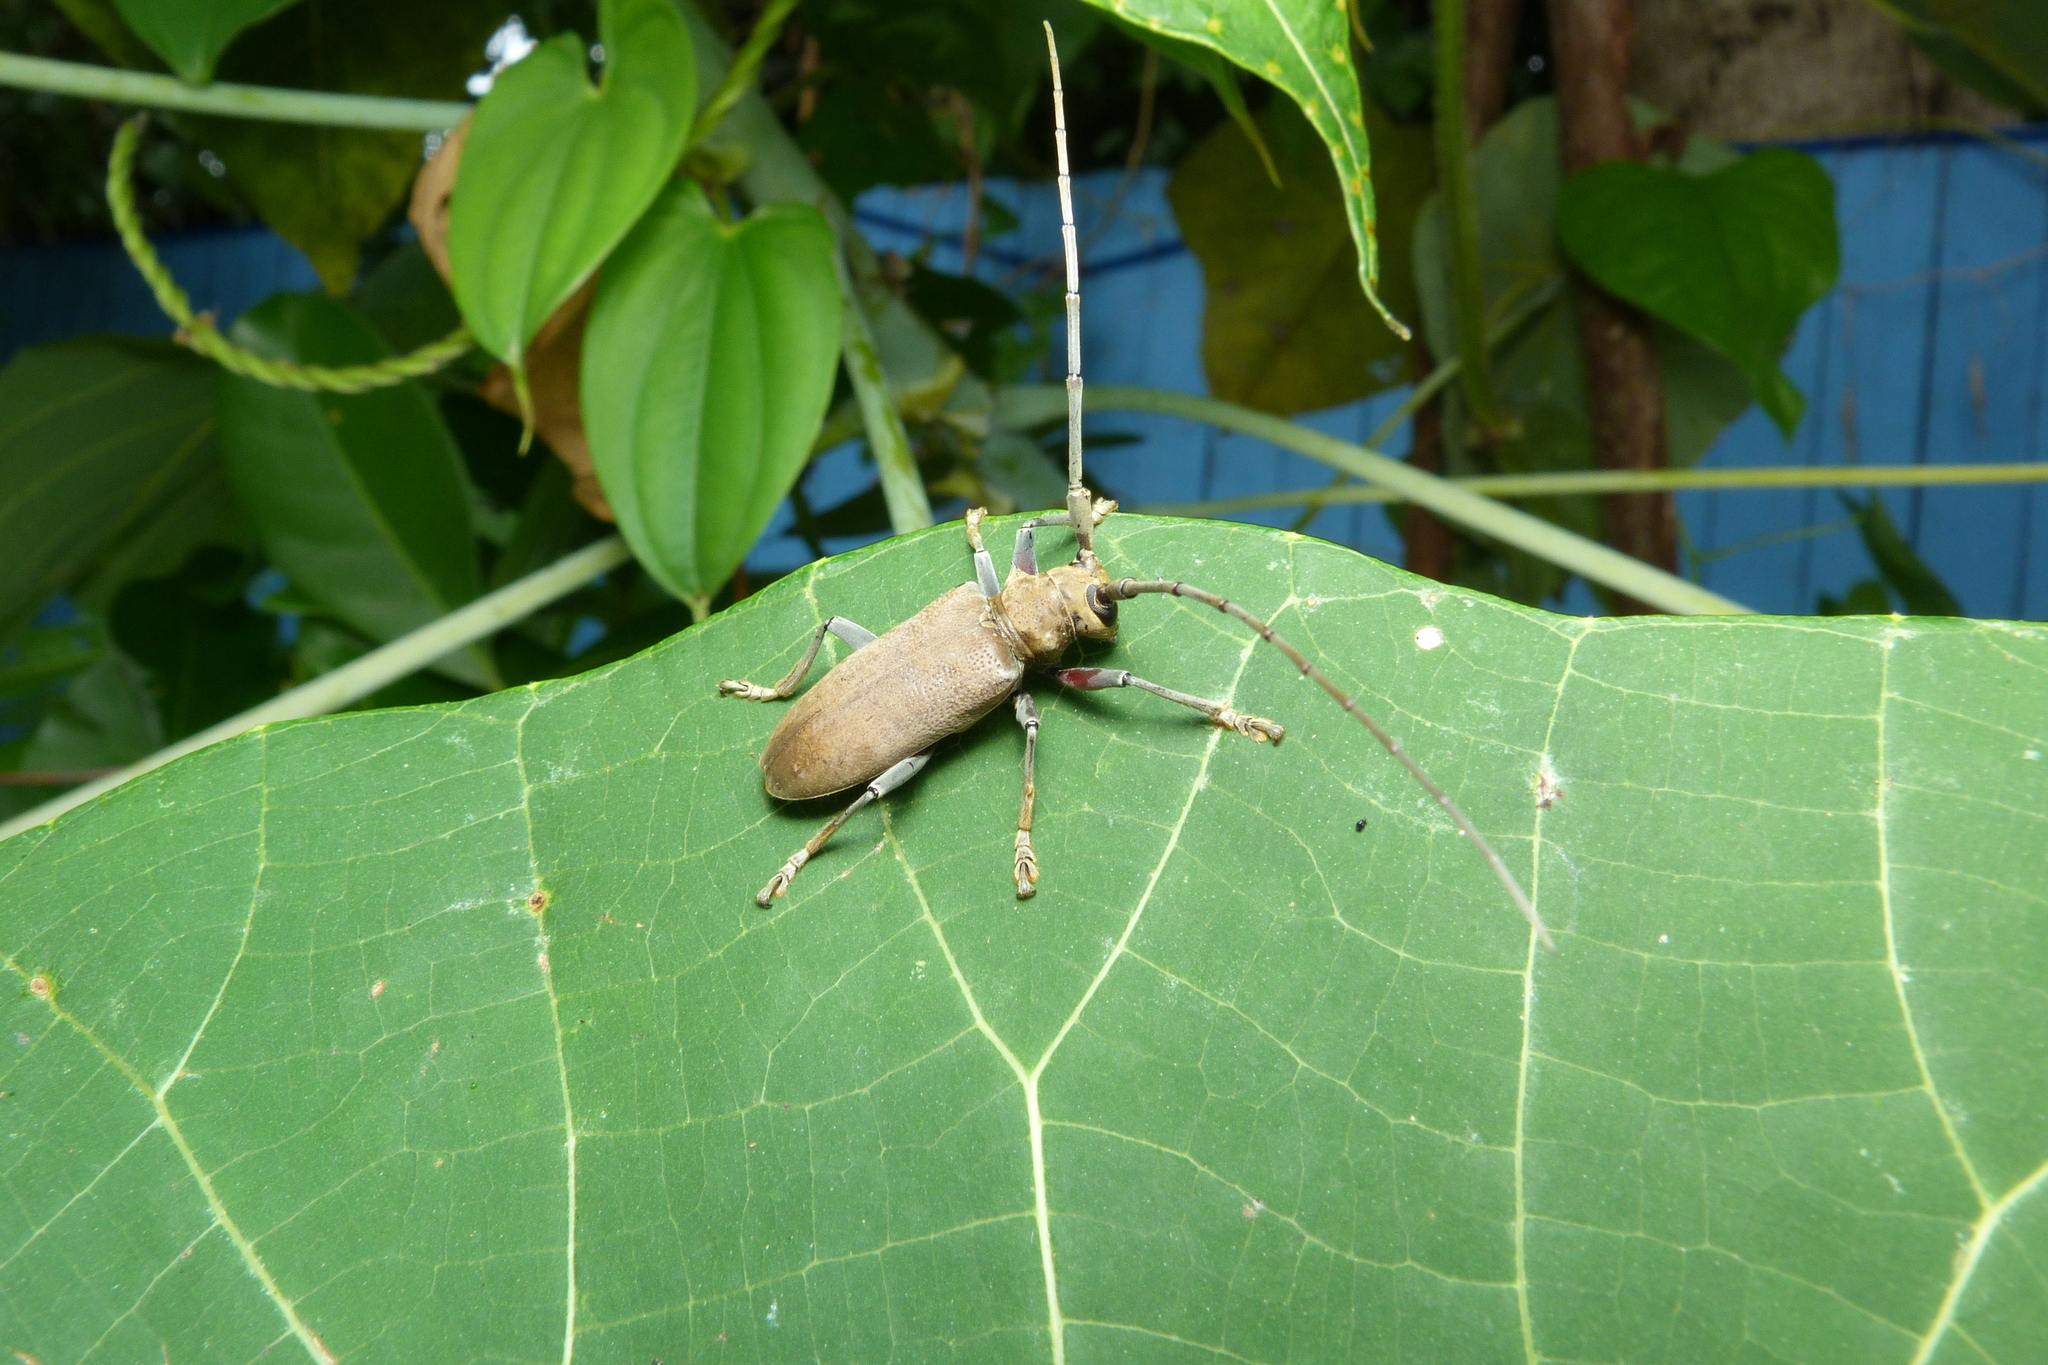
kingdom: Animalia
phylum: Arthropoda
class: Insecta
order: Coleoptera
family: Cerambycidae
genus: Acalolepta
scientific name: Acalolepta aesthetica
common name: Longhorned beetle
